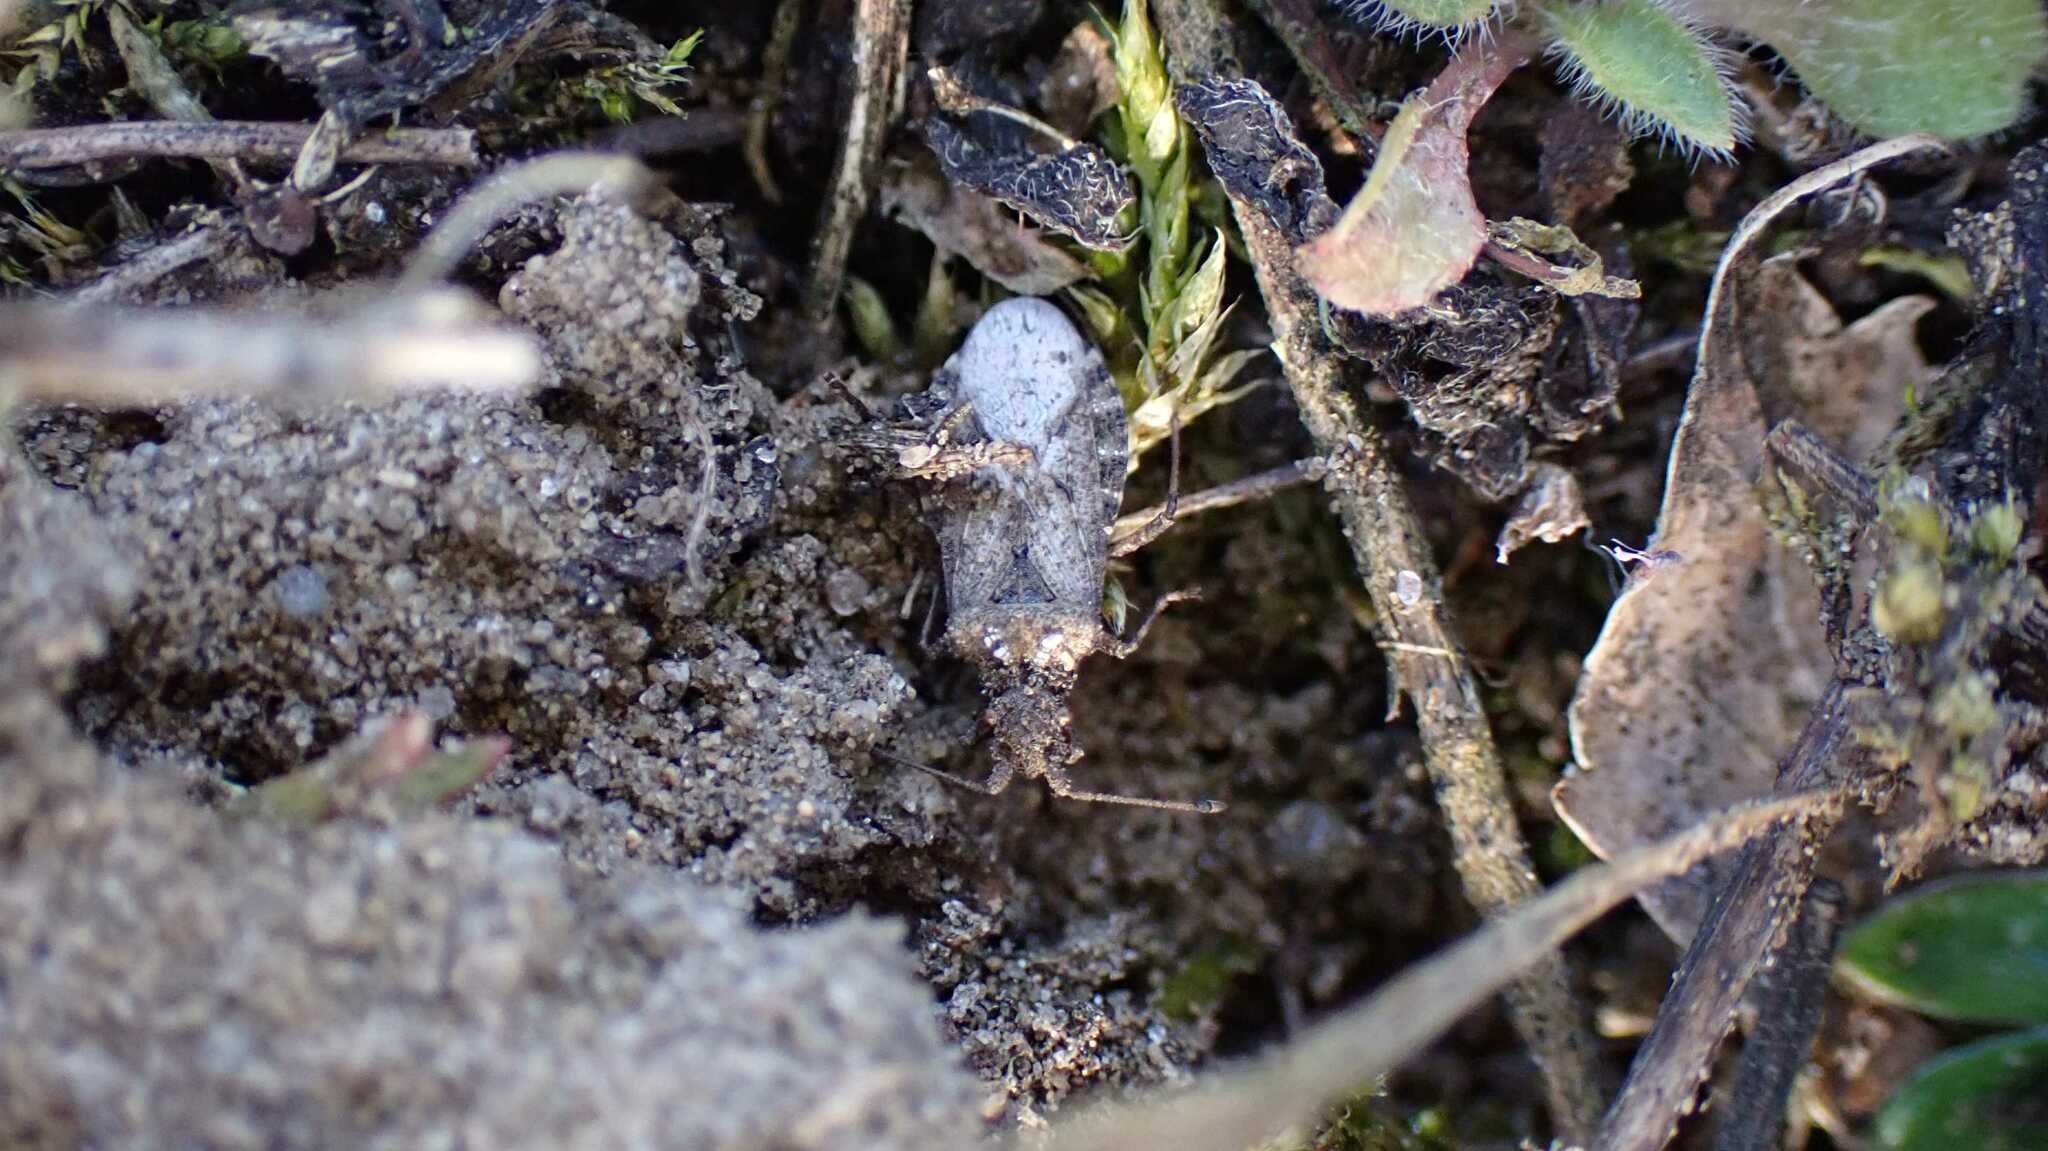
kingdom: Animalia
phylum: Arthropoda
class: Insecta
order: Hemiptera
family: Coreidae
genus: Arenocoris
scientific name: Arenocoris fallenii
